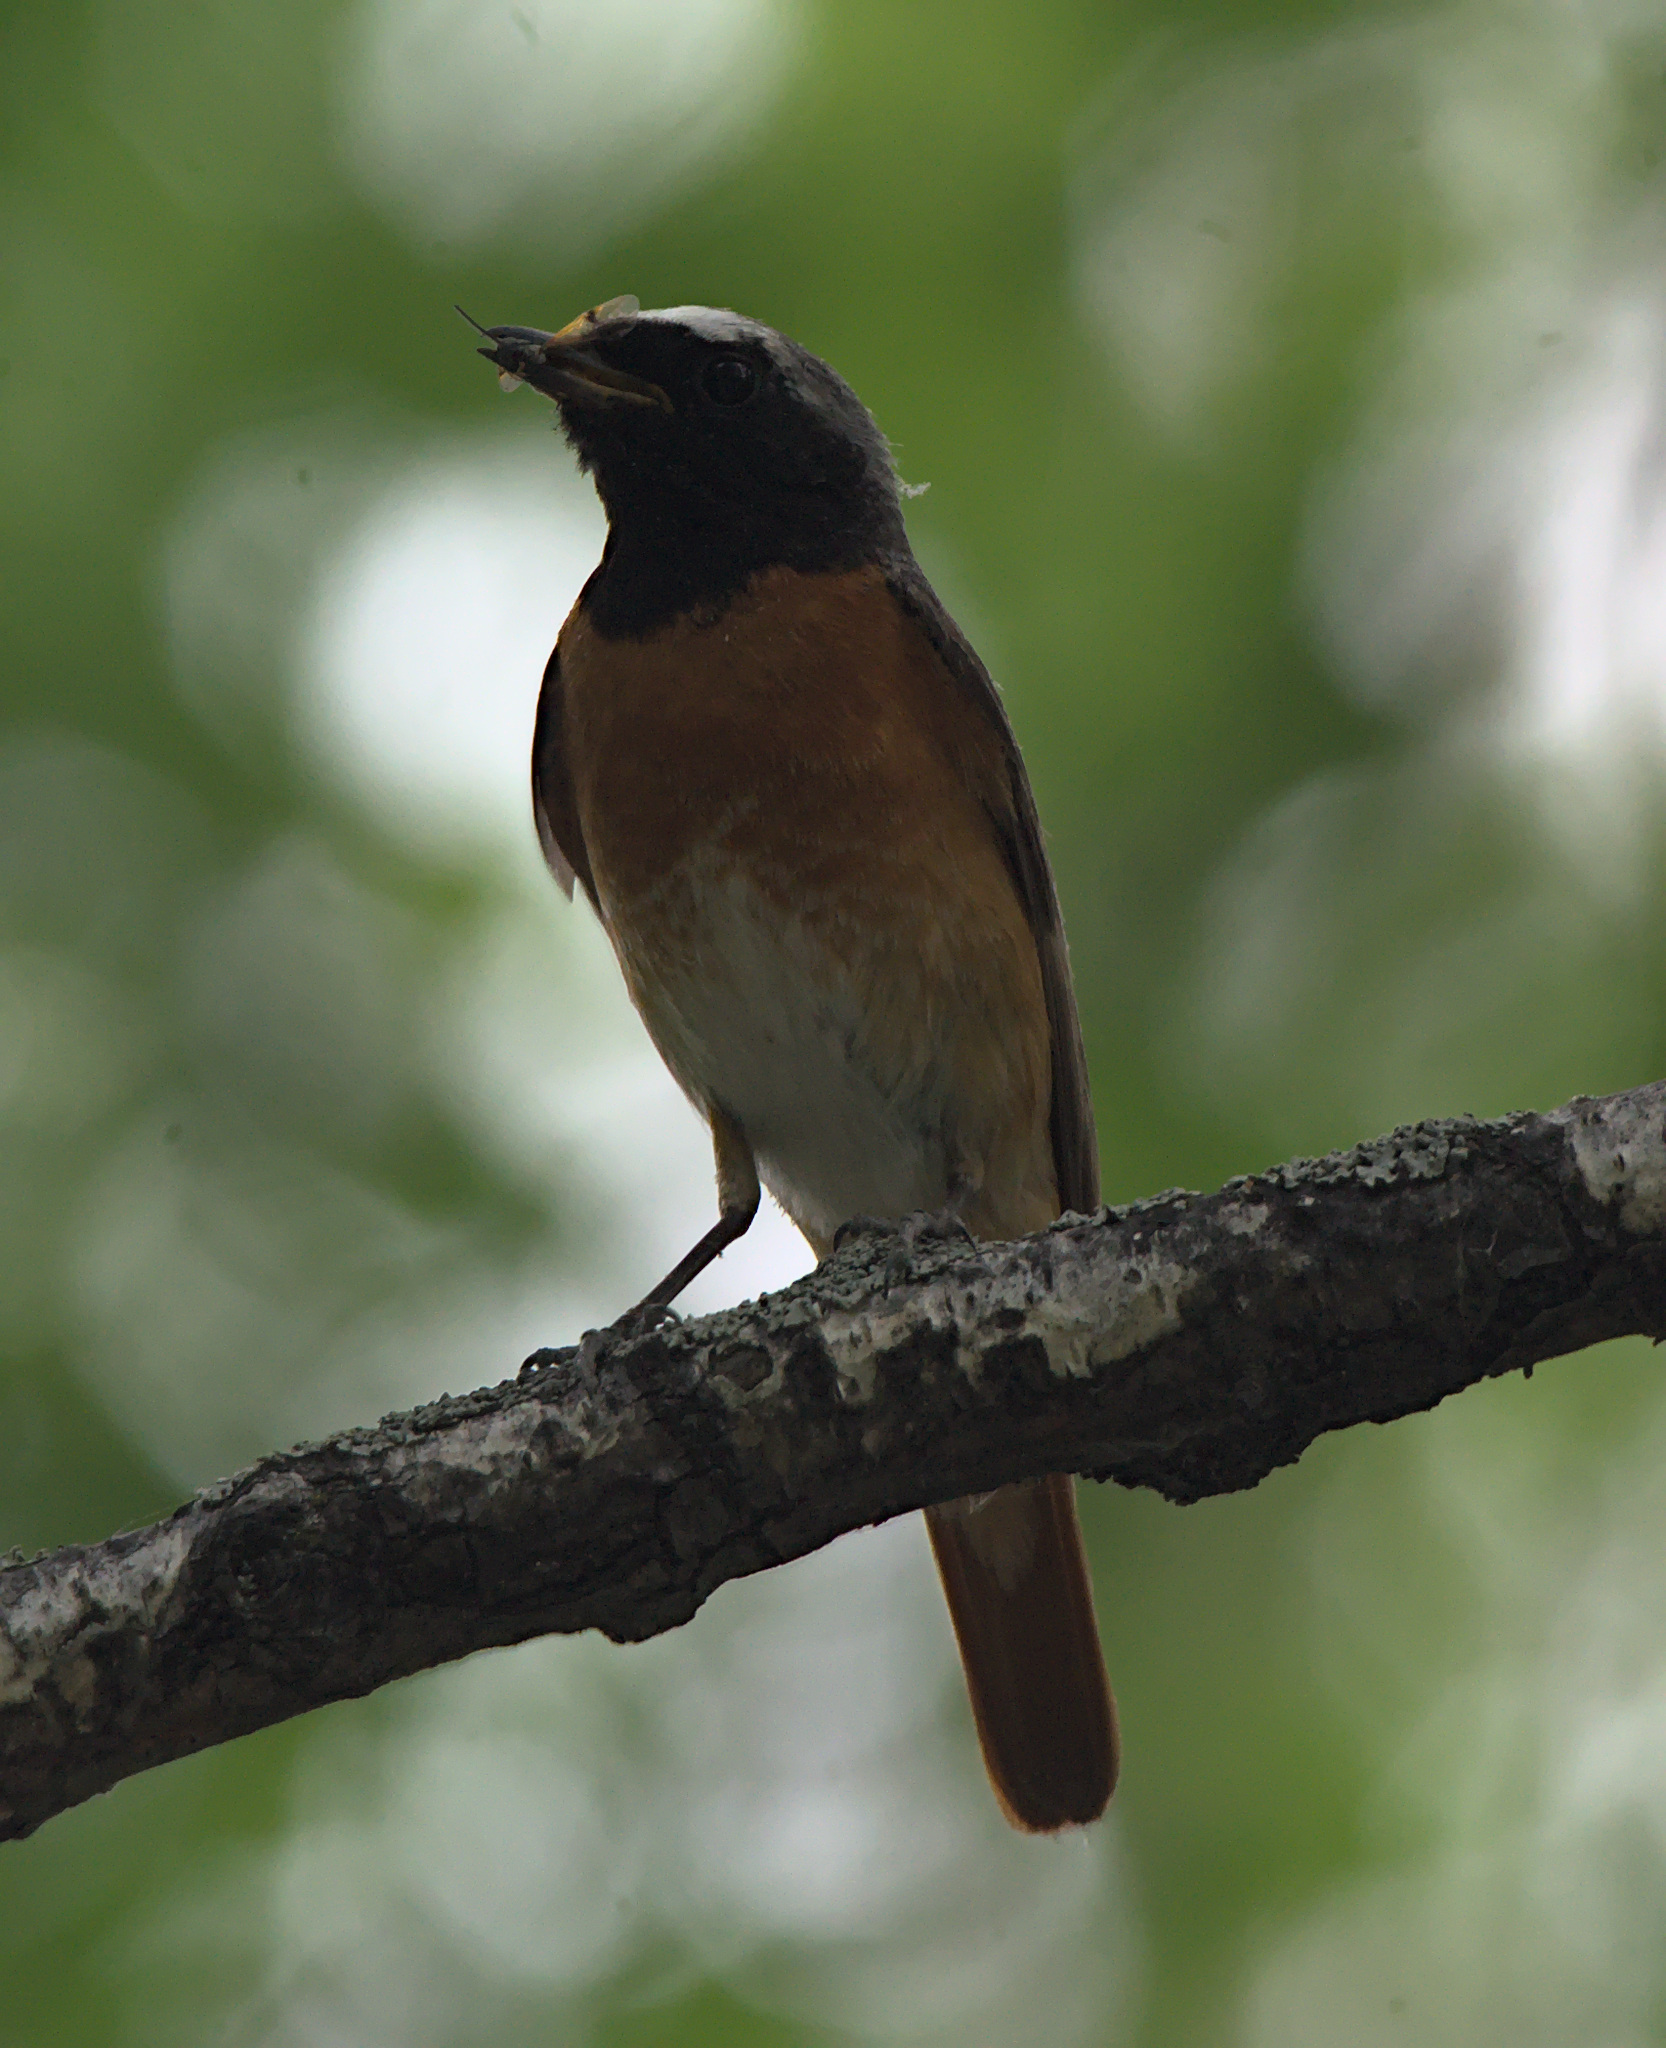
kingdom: Animalia
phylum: Chordata
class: Aves
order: Passeriformes
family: Muscicapidae
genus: Phoenicurus
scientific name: Phoenicurus phoenicurus
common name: Common redstart
